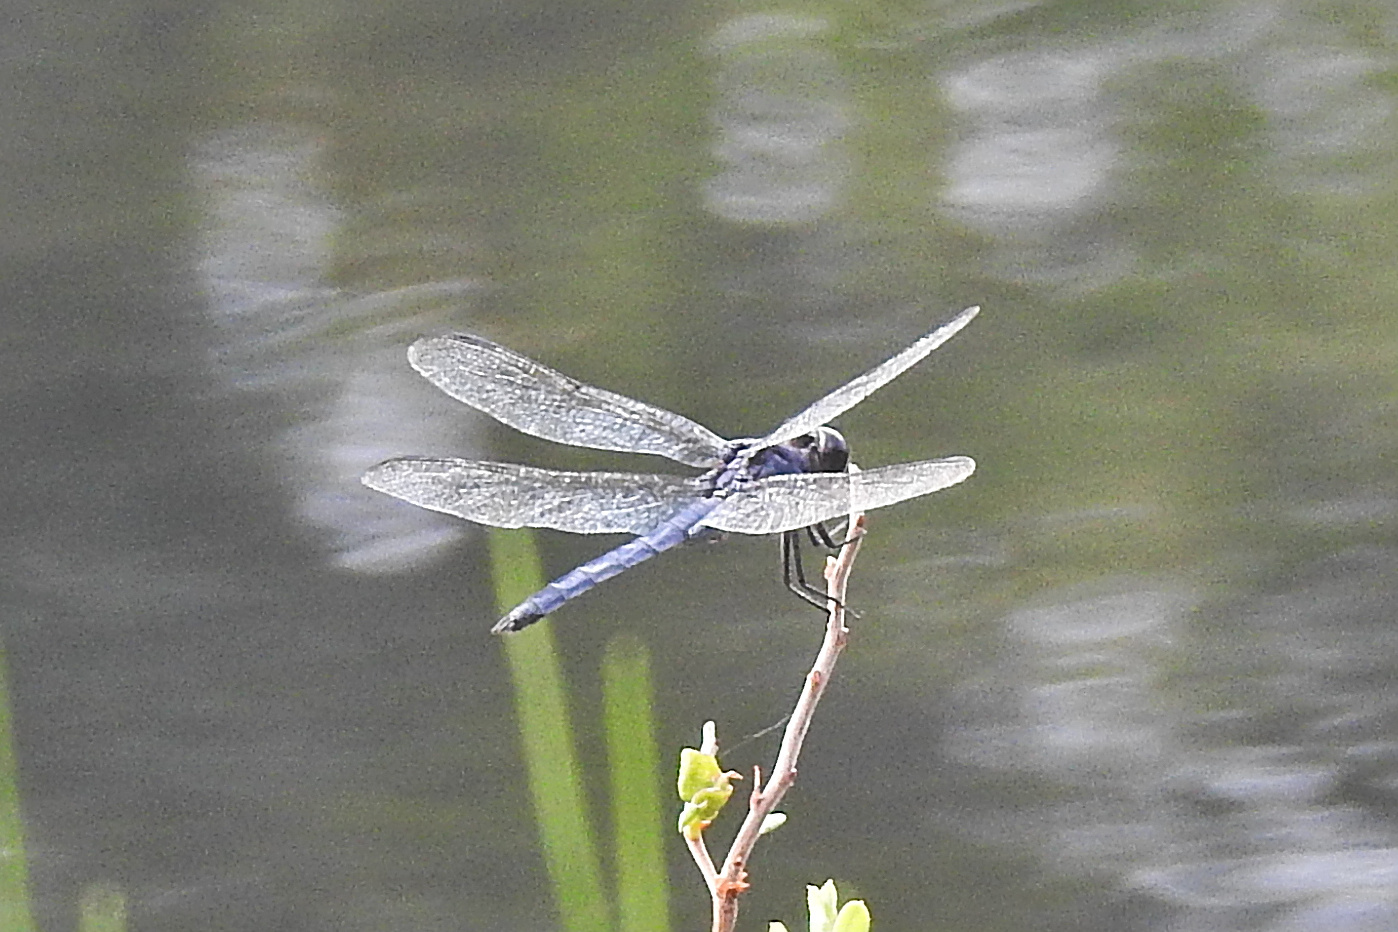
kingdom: Animalia
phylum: Arthropoda
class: Insecta
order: Odonata
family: Libellulidae
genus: Libellula
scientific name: Libellula incesta
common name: Slaty skimmer
